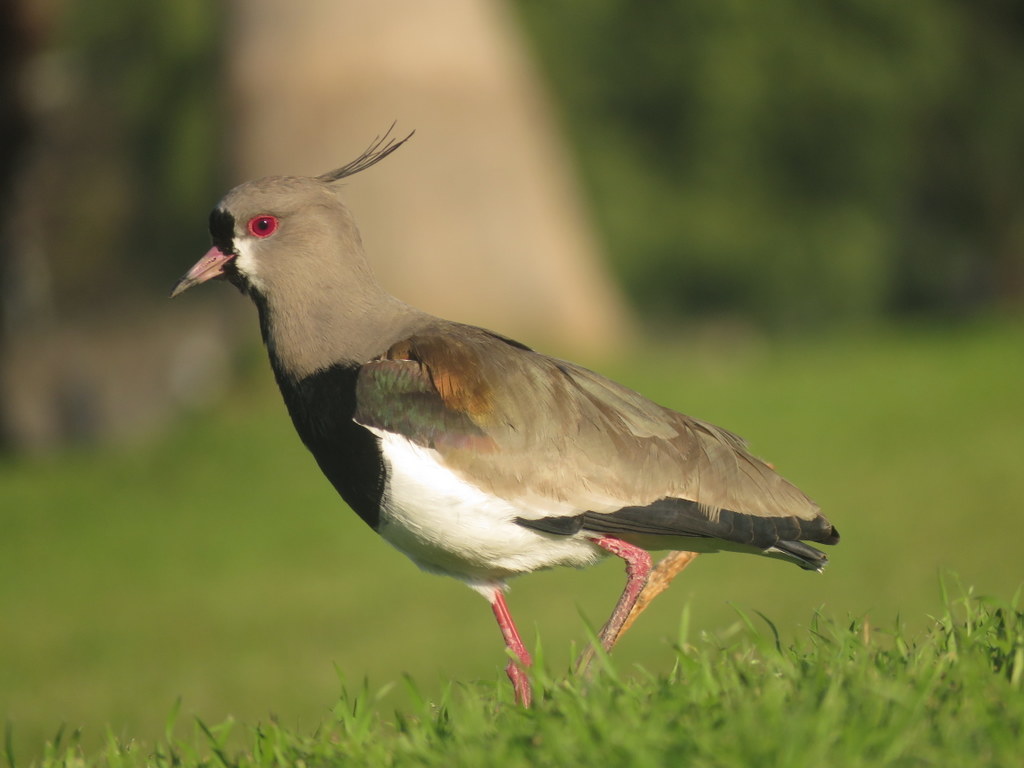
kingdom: Animalia
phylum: Chordata
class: Aves
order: Charadriiformes
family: Charadriidae
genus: Vanellus
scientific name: Vanellus chilensis
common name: Southern lapwing
